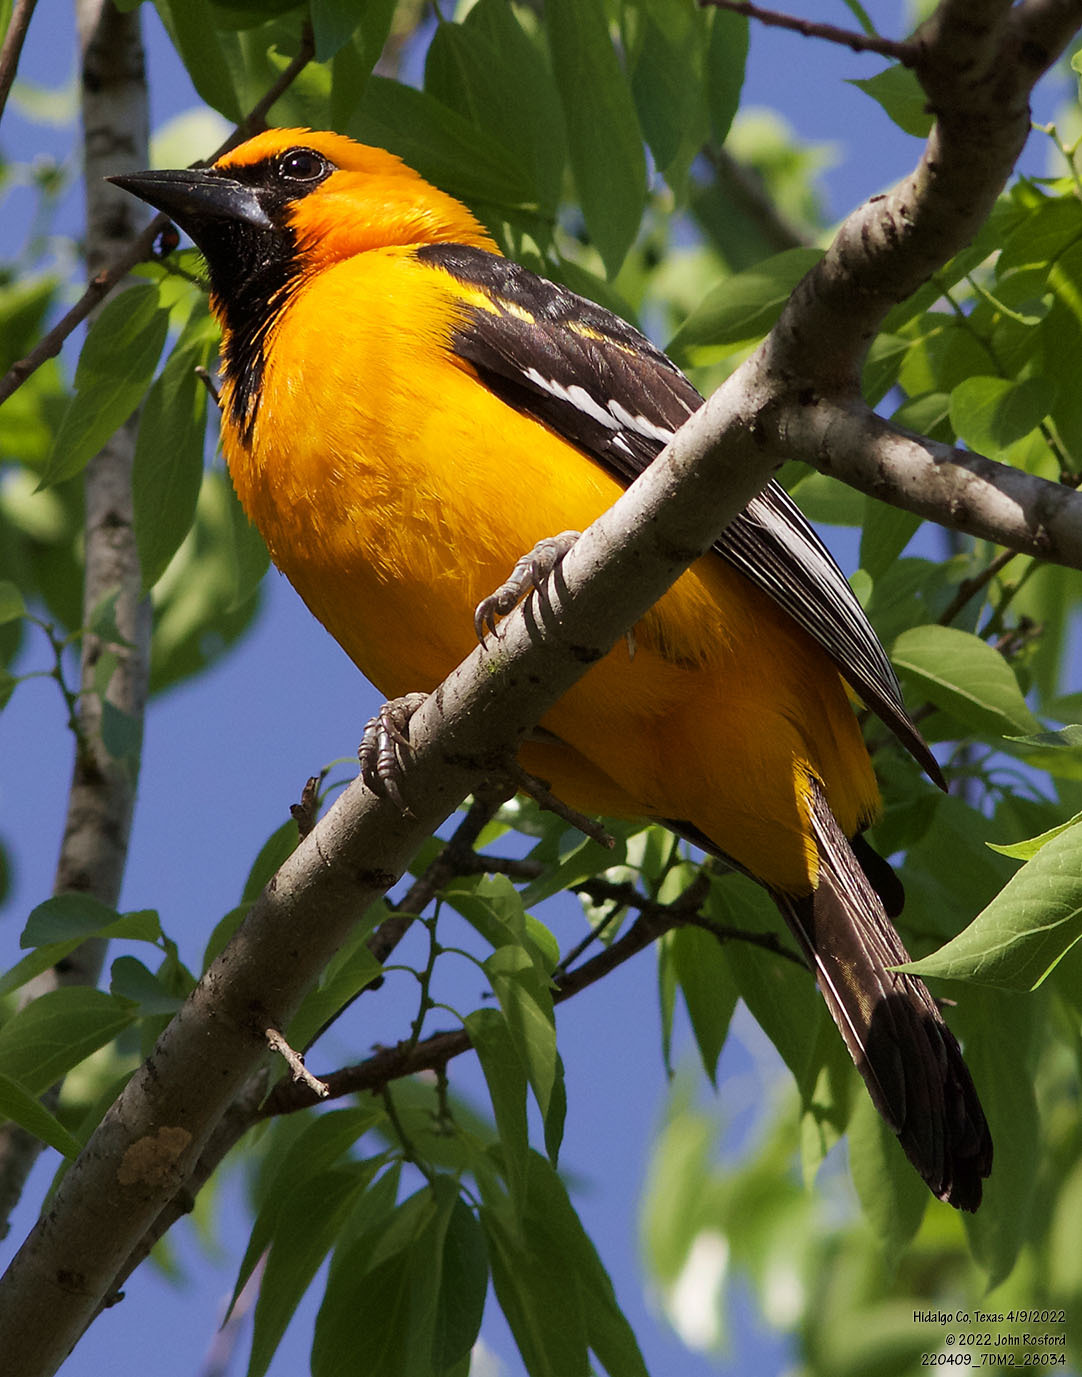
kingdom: Animalia
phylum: Chordata
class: Aves
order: Passeriformes
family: Icteridae
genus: Icterus
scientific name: Icterus gularis
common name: Altamira oriole
